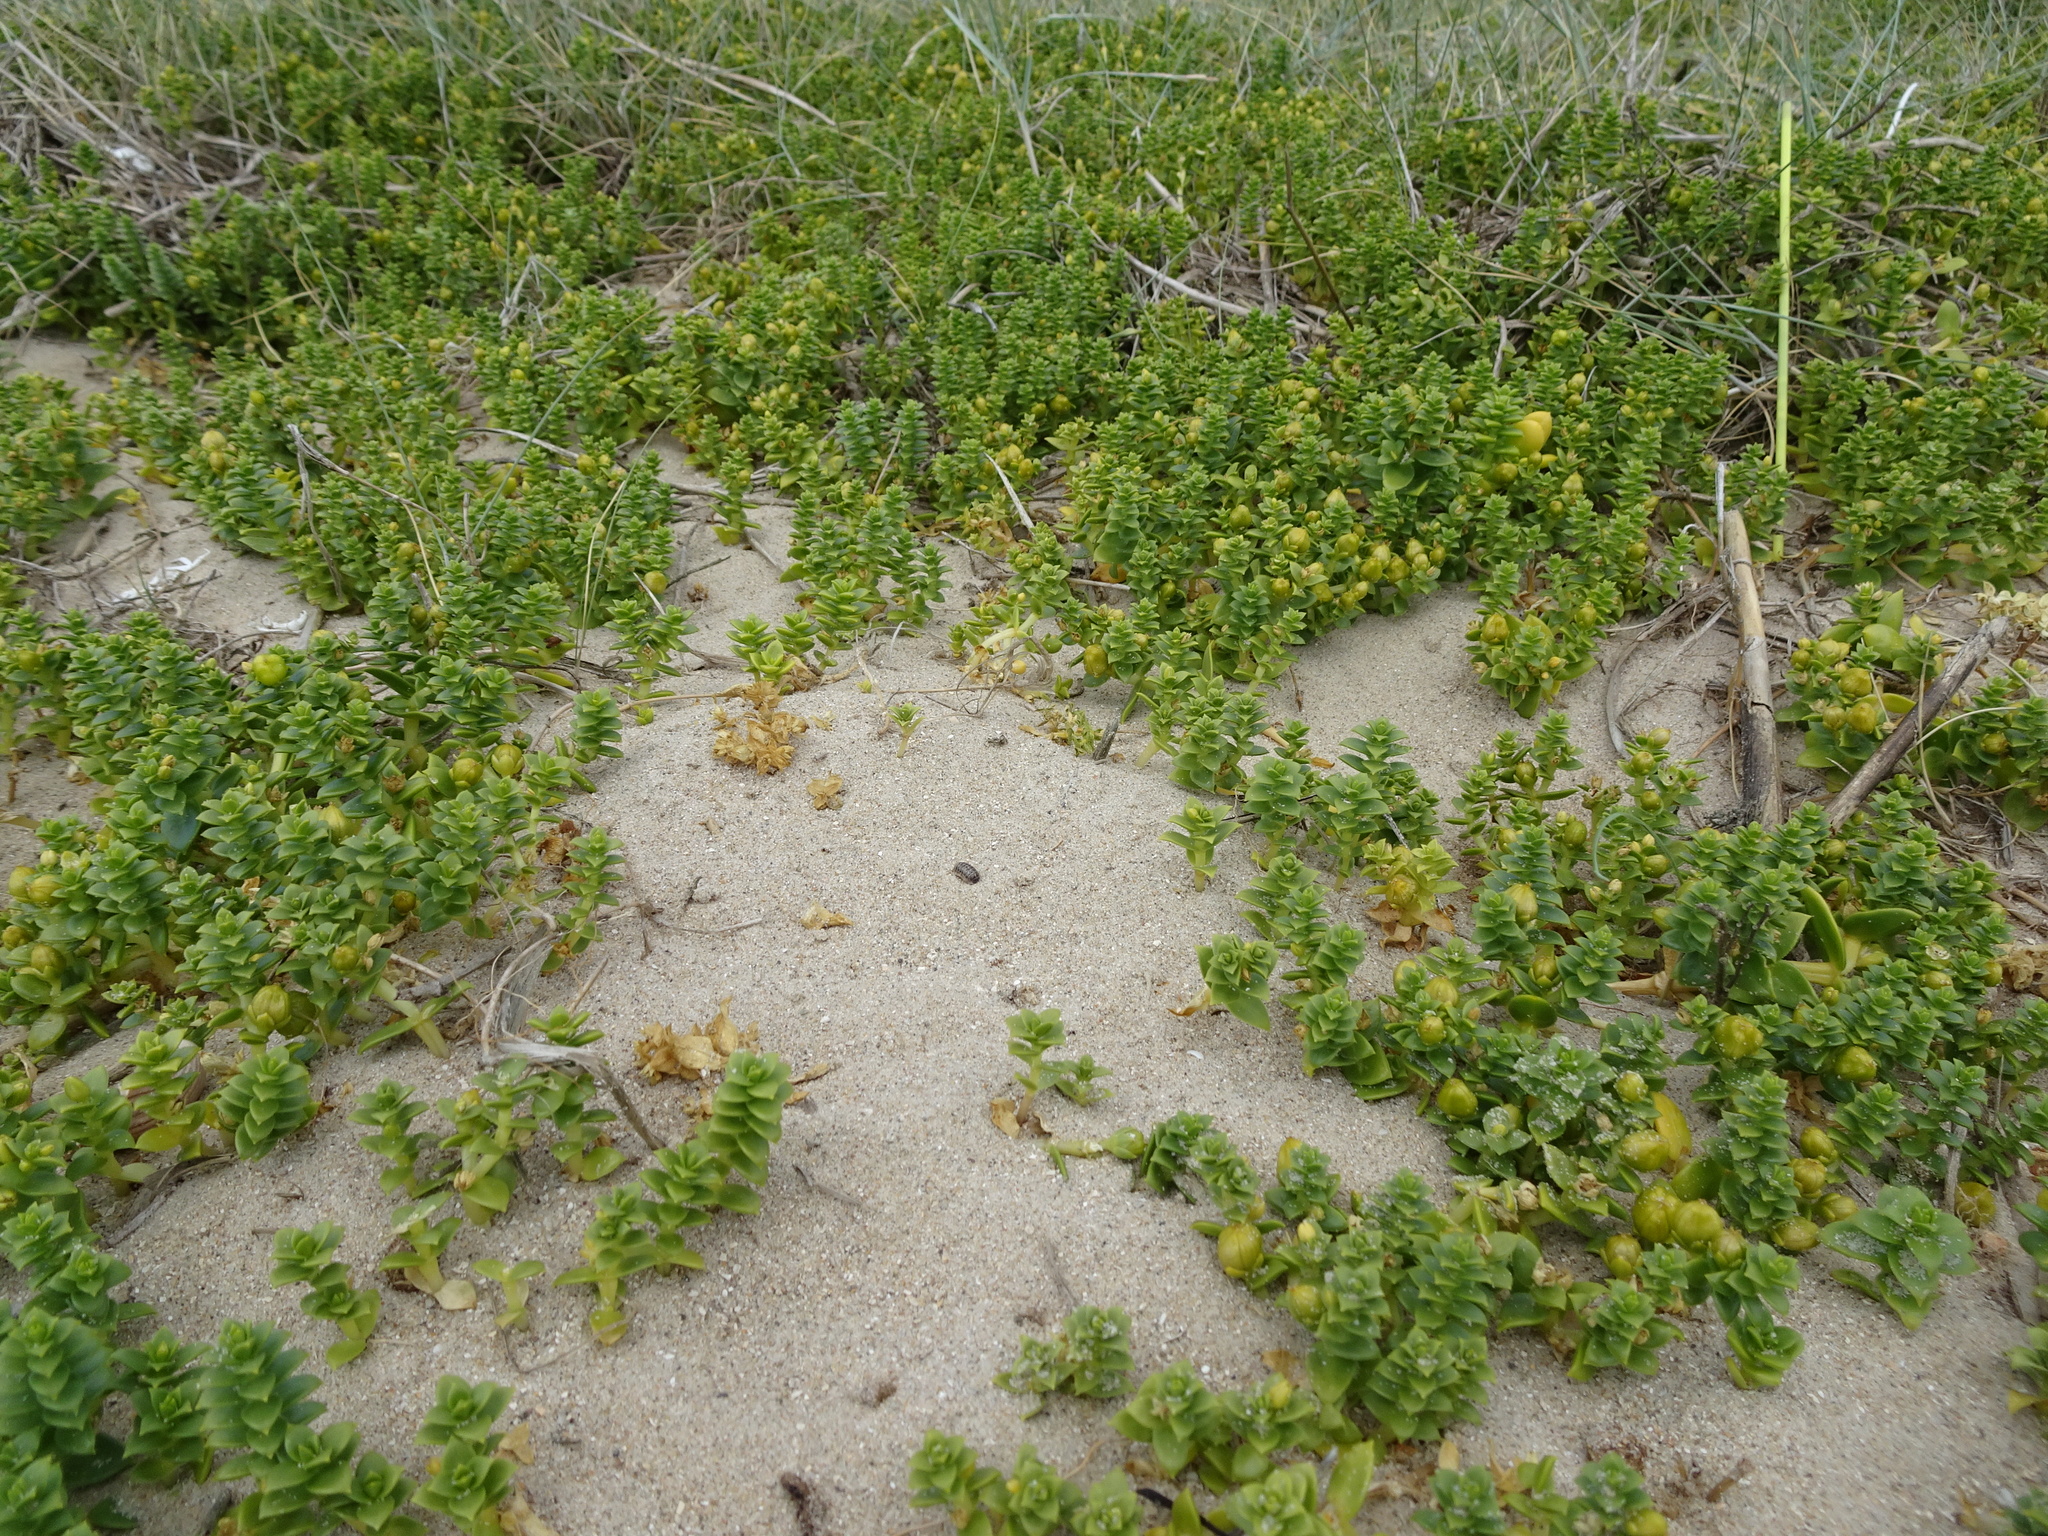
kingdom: Plantae
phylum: Tracheophyta
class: Magnoliopsida
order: Caryophyllales
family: Caryophyllaceae
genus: Honckenya
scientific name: Honckenya peploides
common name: Sea sandwort
